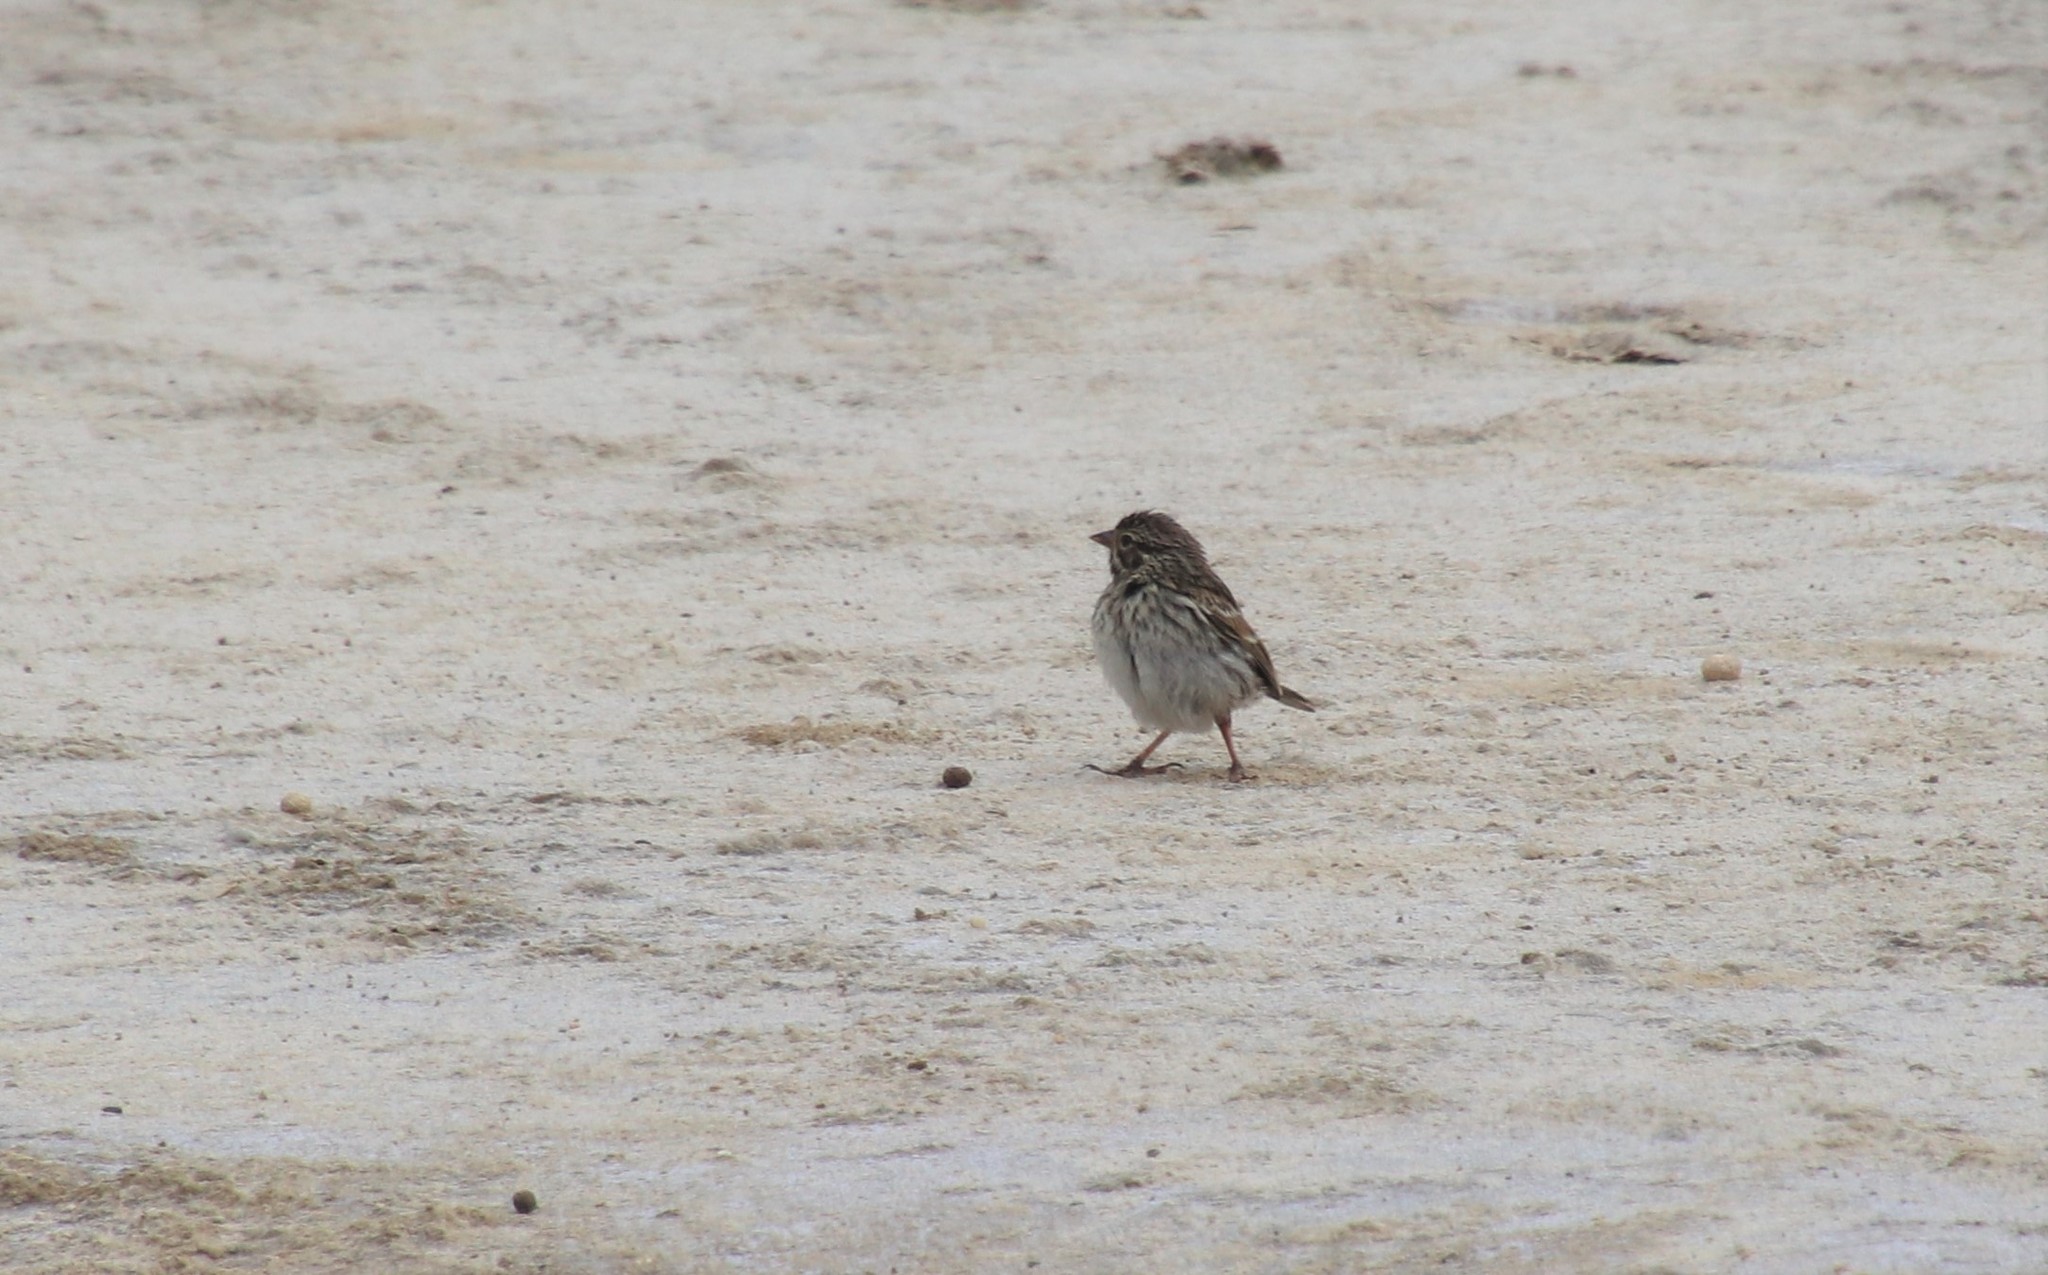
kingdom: Animalia
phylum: Chordata
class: Aves
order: Passeriformes
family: Passerellidae
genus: Passerculus
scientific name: Passerculus sandwichensis
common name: Savannah sparrow
